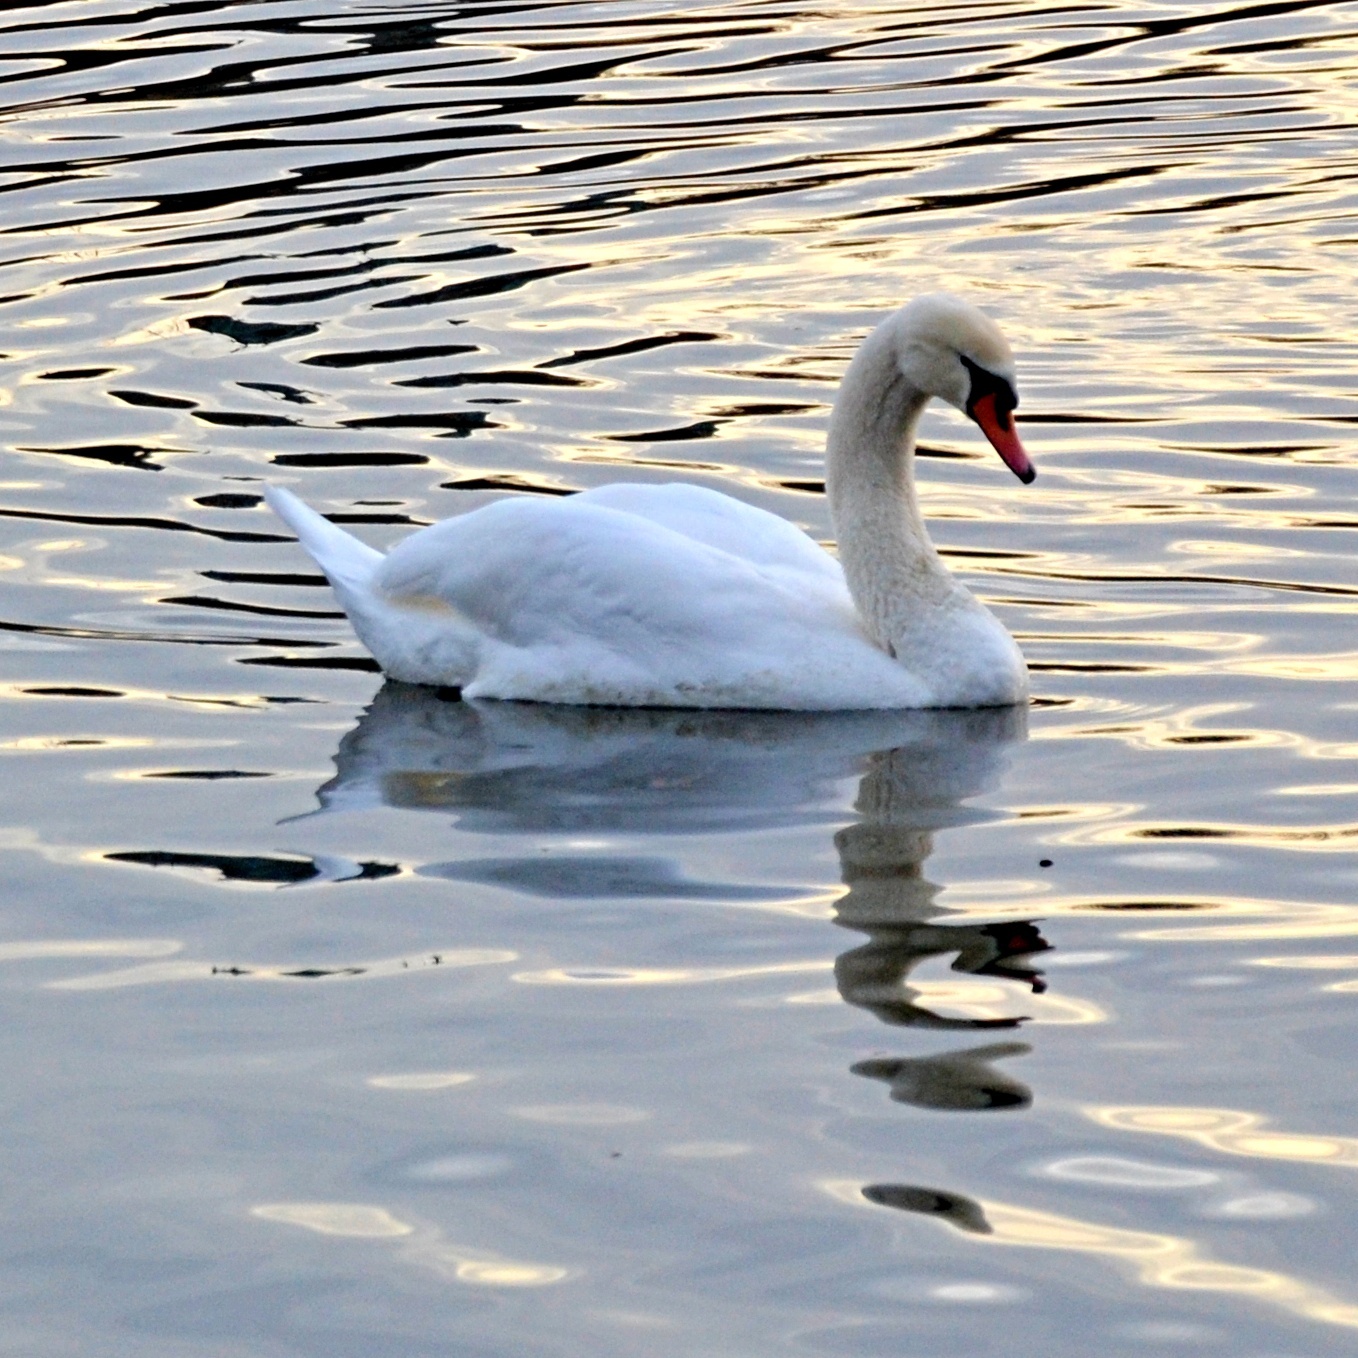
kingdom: Animalia
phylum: Chordata
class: Aves
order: Anseriformes
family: Anatidae
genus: Cygnus
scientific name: Cygnus olor
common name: Mute swan
